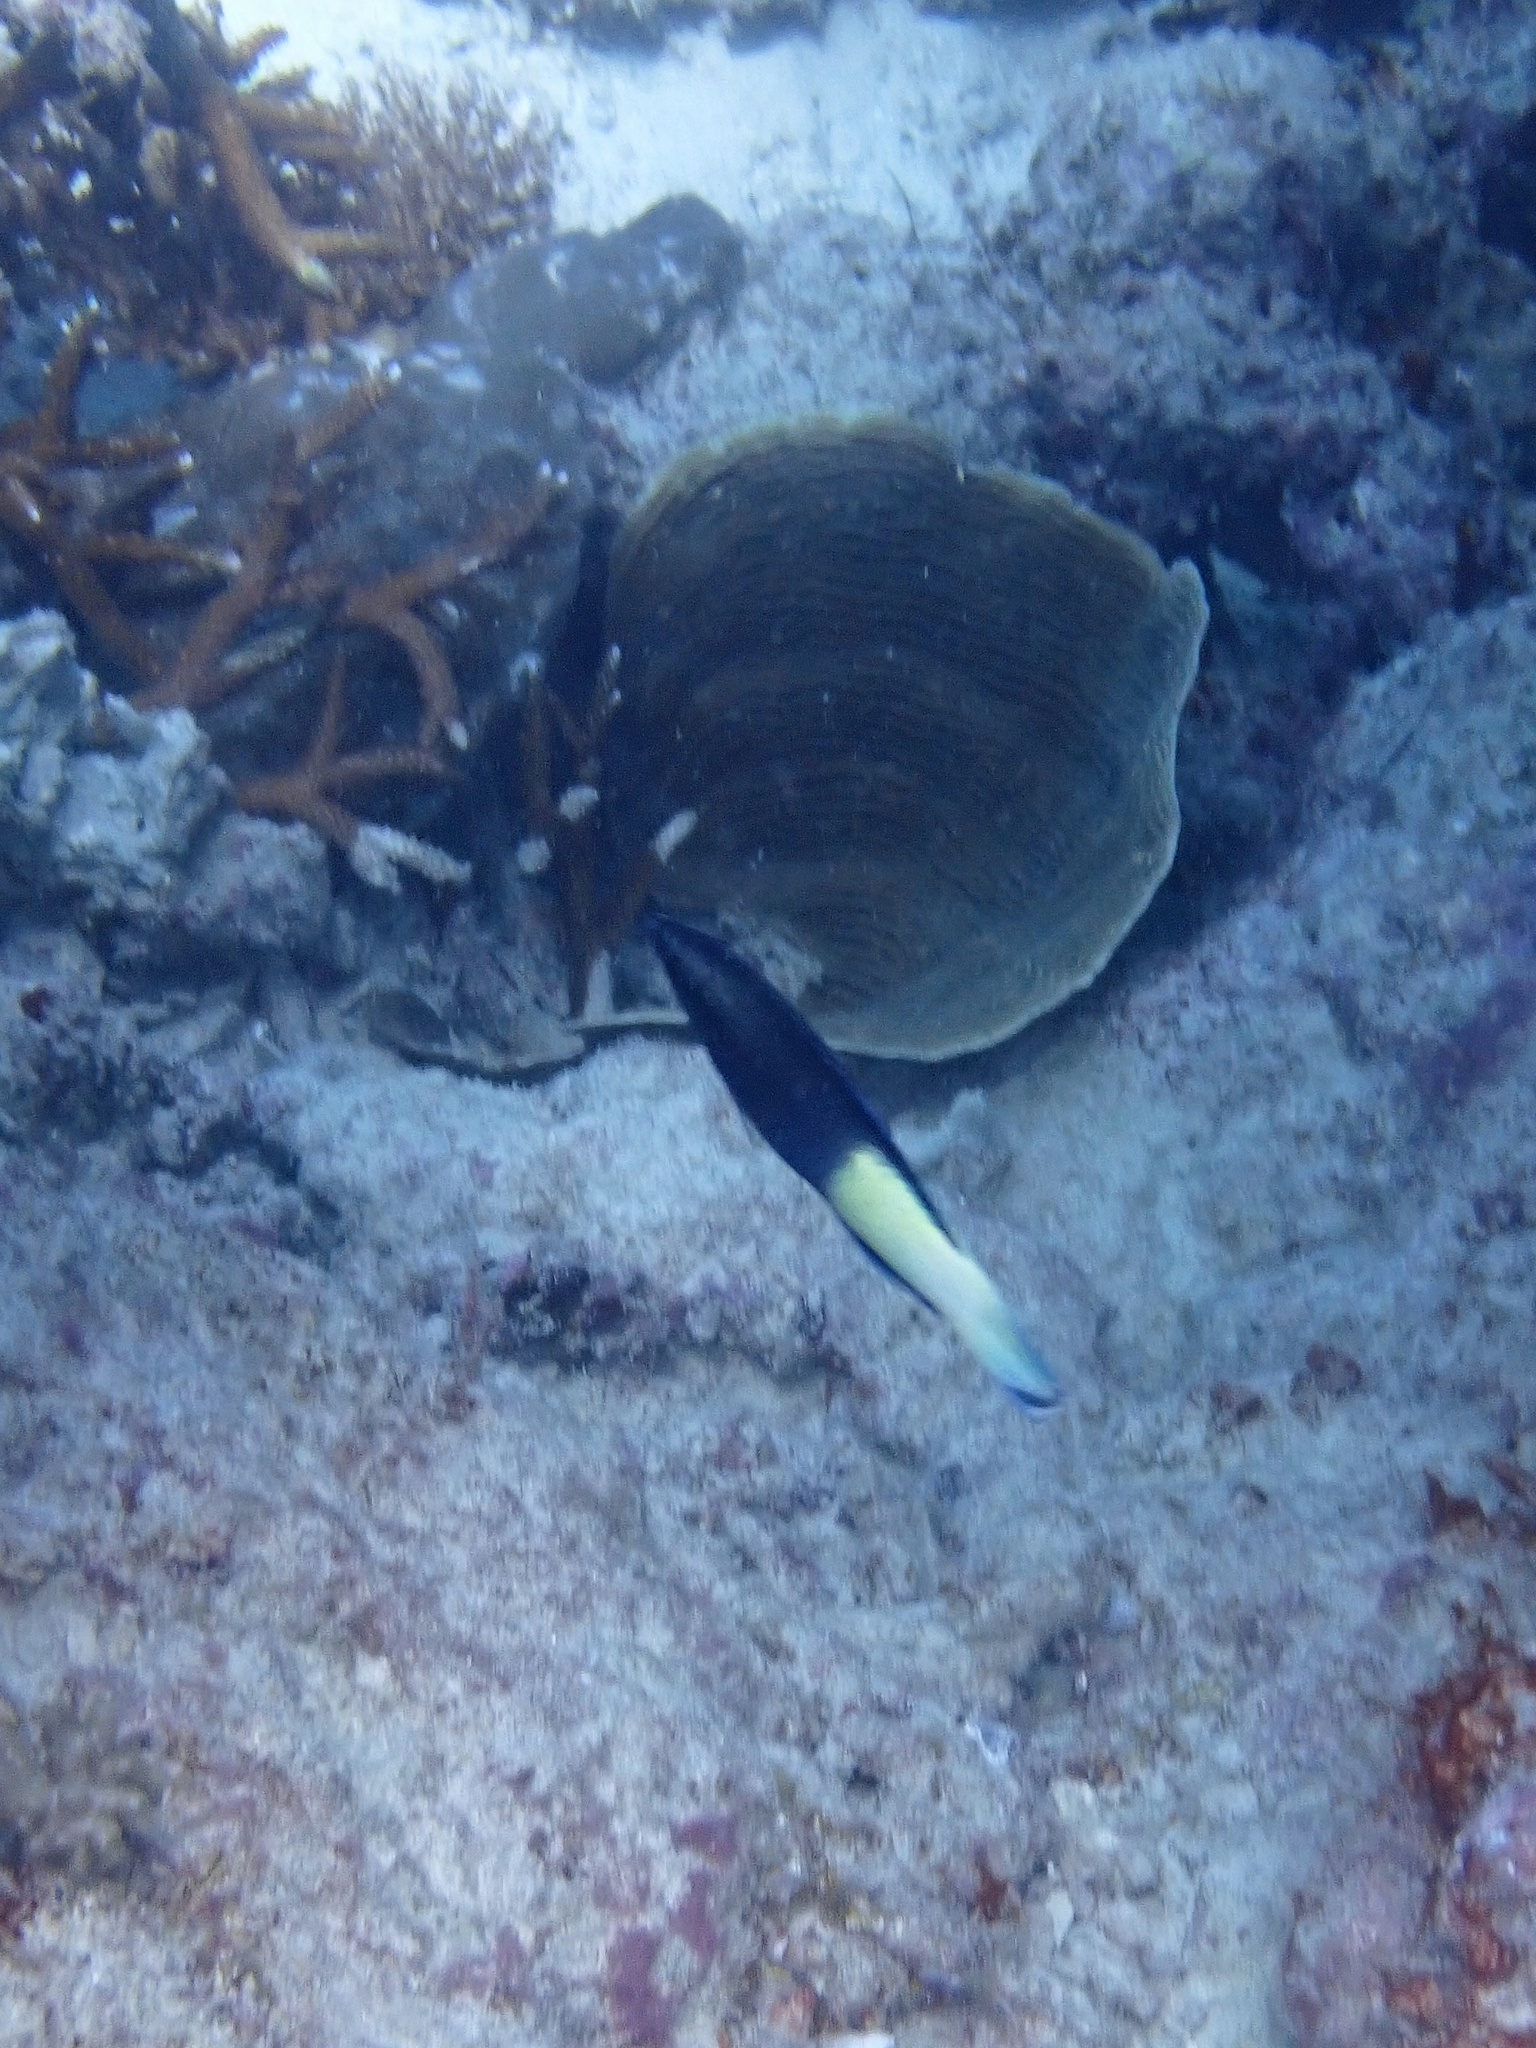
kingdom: Animalia
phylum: Chordata
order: Perciformes
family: Labridae
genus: Labroides
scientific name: Labroides bicolor
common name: Bicolor cleaner wrasse
